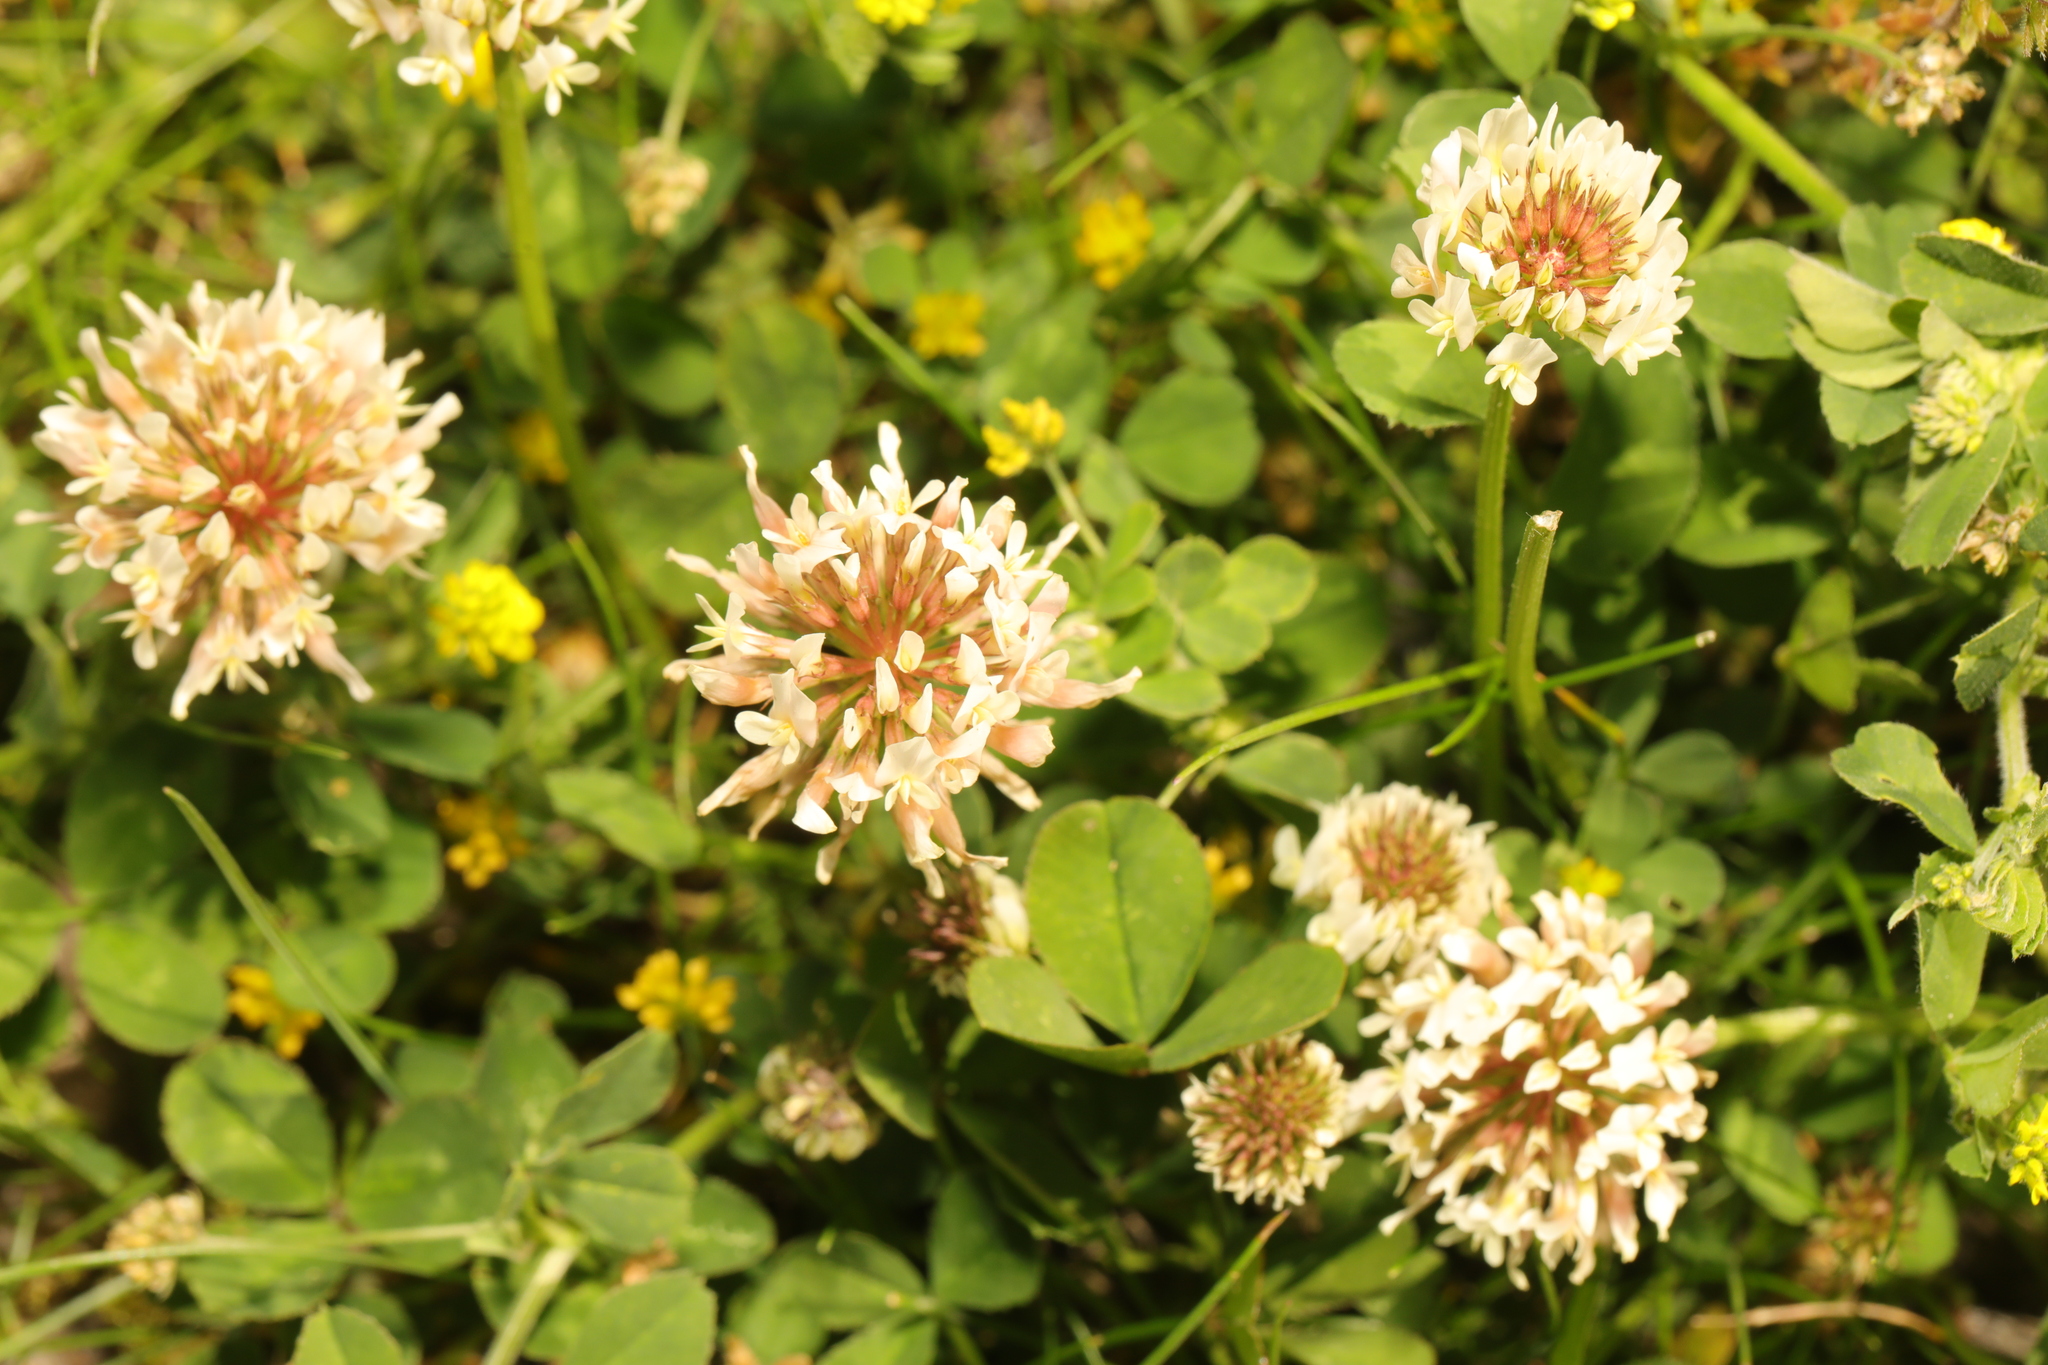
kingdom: Plantae
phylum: Tracheophyta
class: Magnoliopsida
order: Fabales
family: Fabaceae
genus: Trifolium
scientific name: Trifolium repens
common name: White clover
